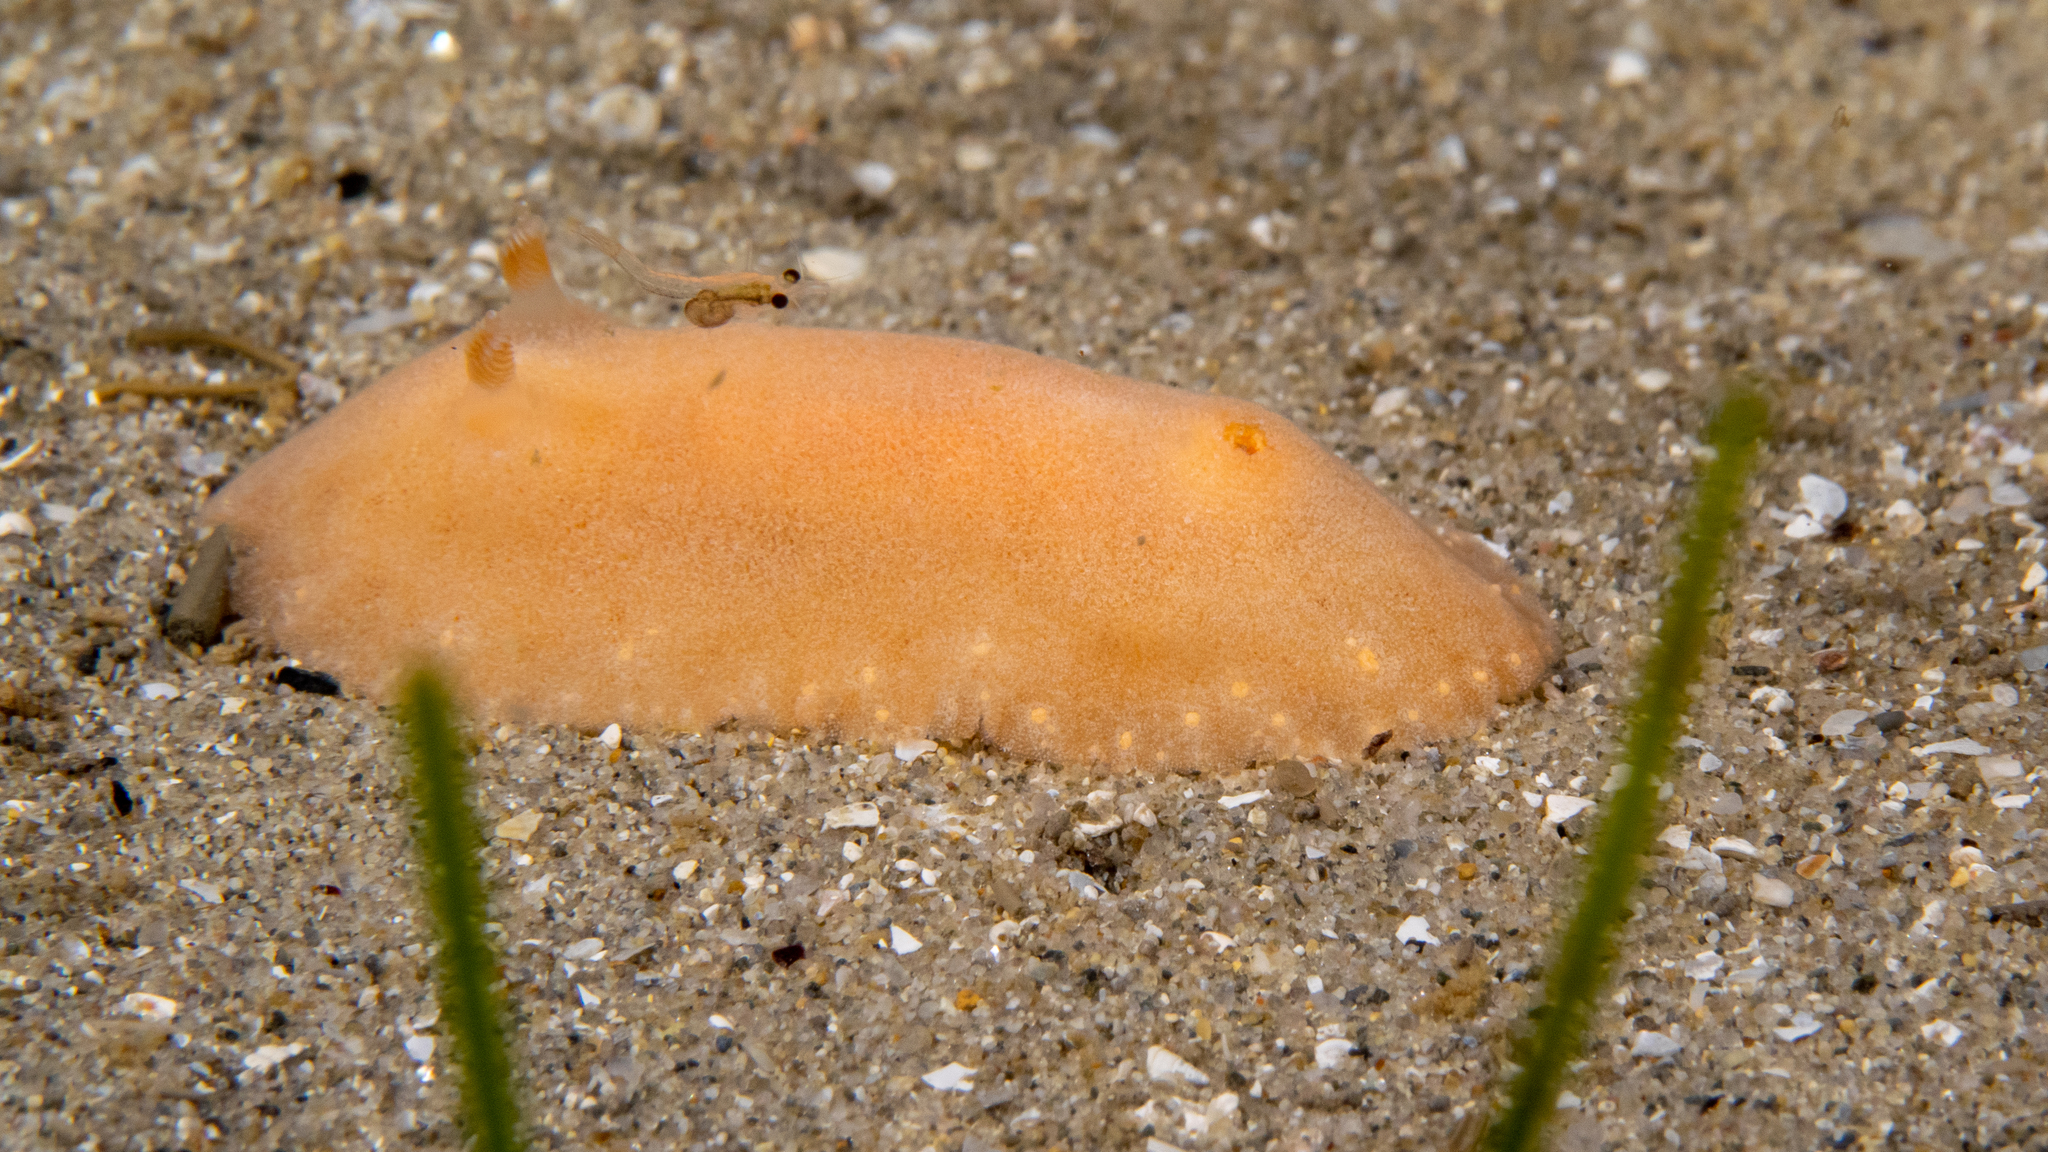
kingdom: Animalia
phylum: Mollusca
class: Gastropoda
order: Nudibranchia
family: Discodorididae
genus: Rostanga
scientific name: Rostanga crawfordi
